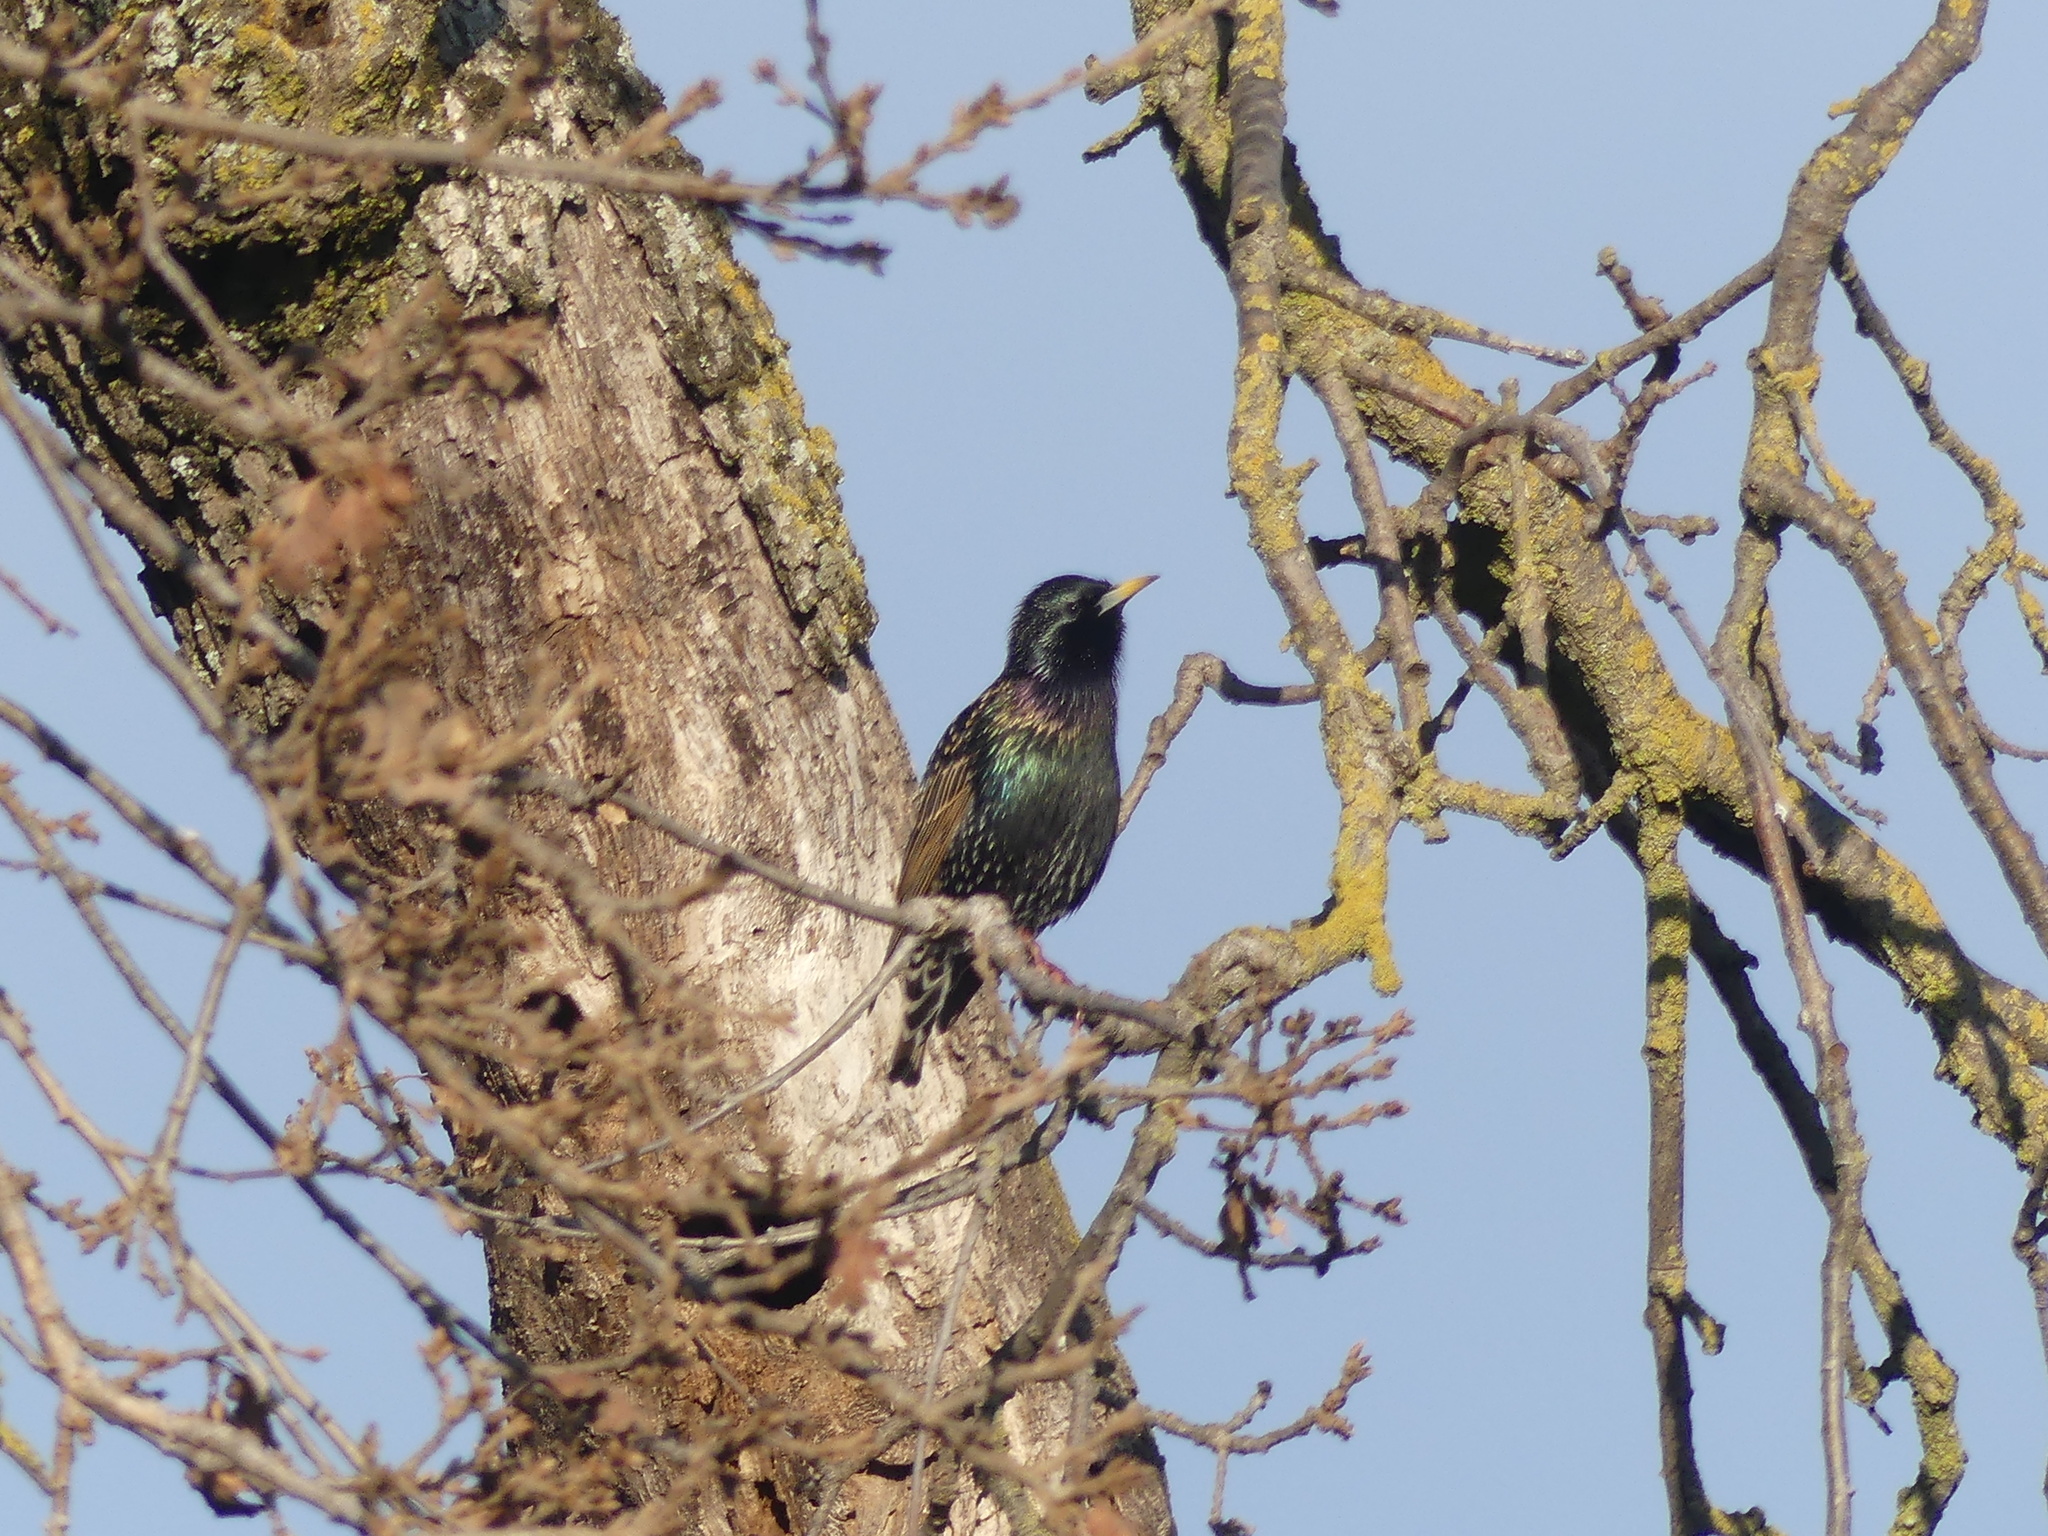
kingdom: Animalia
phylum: Chordata
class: Aves
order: Passeriformes
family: Sturnidae
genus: Sturnus
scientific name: Sturnus vulgaris
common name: Common starling
